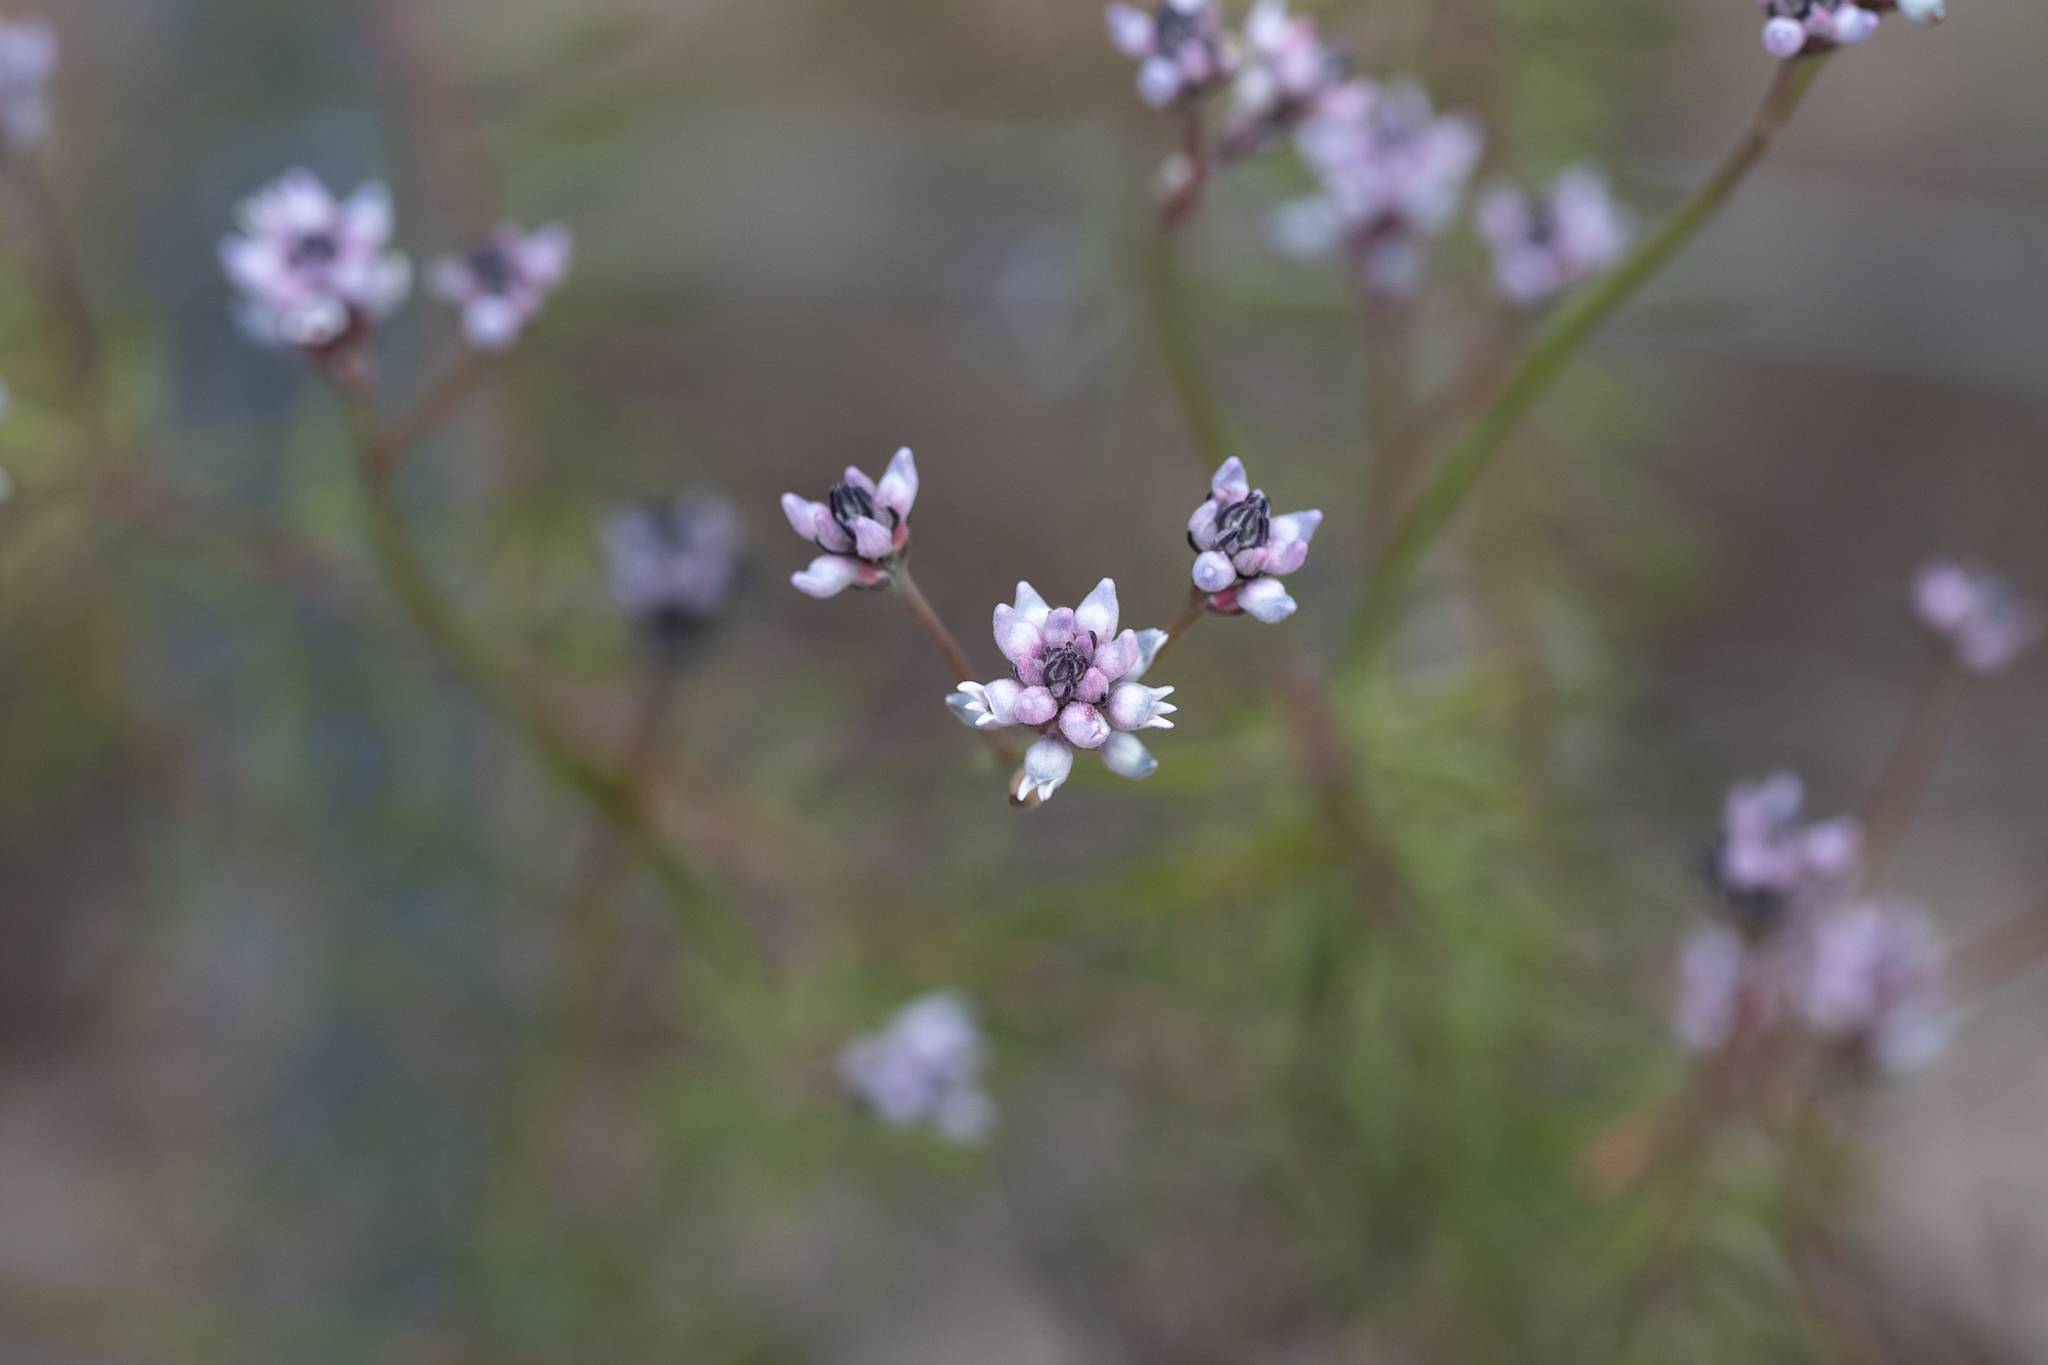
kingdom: Plantae
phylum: Tracheophyta
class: Magnoliopsida
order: Proteales
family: Proteaceae
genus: Conospermum
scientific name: Conospermum patens
